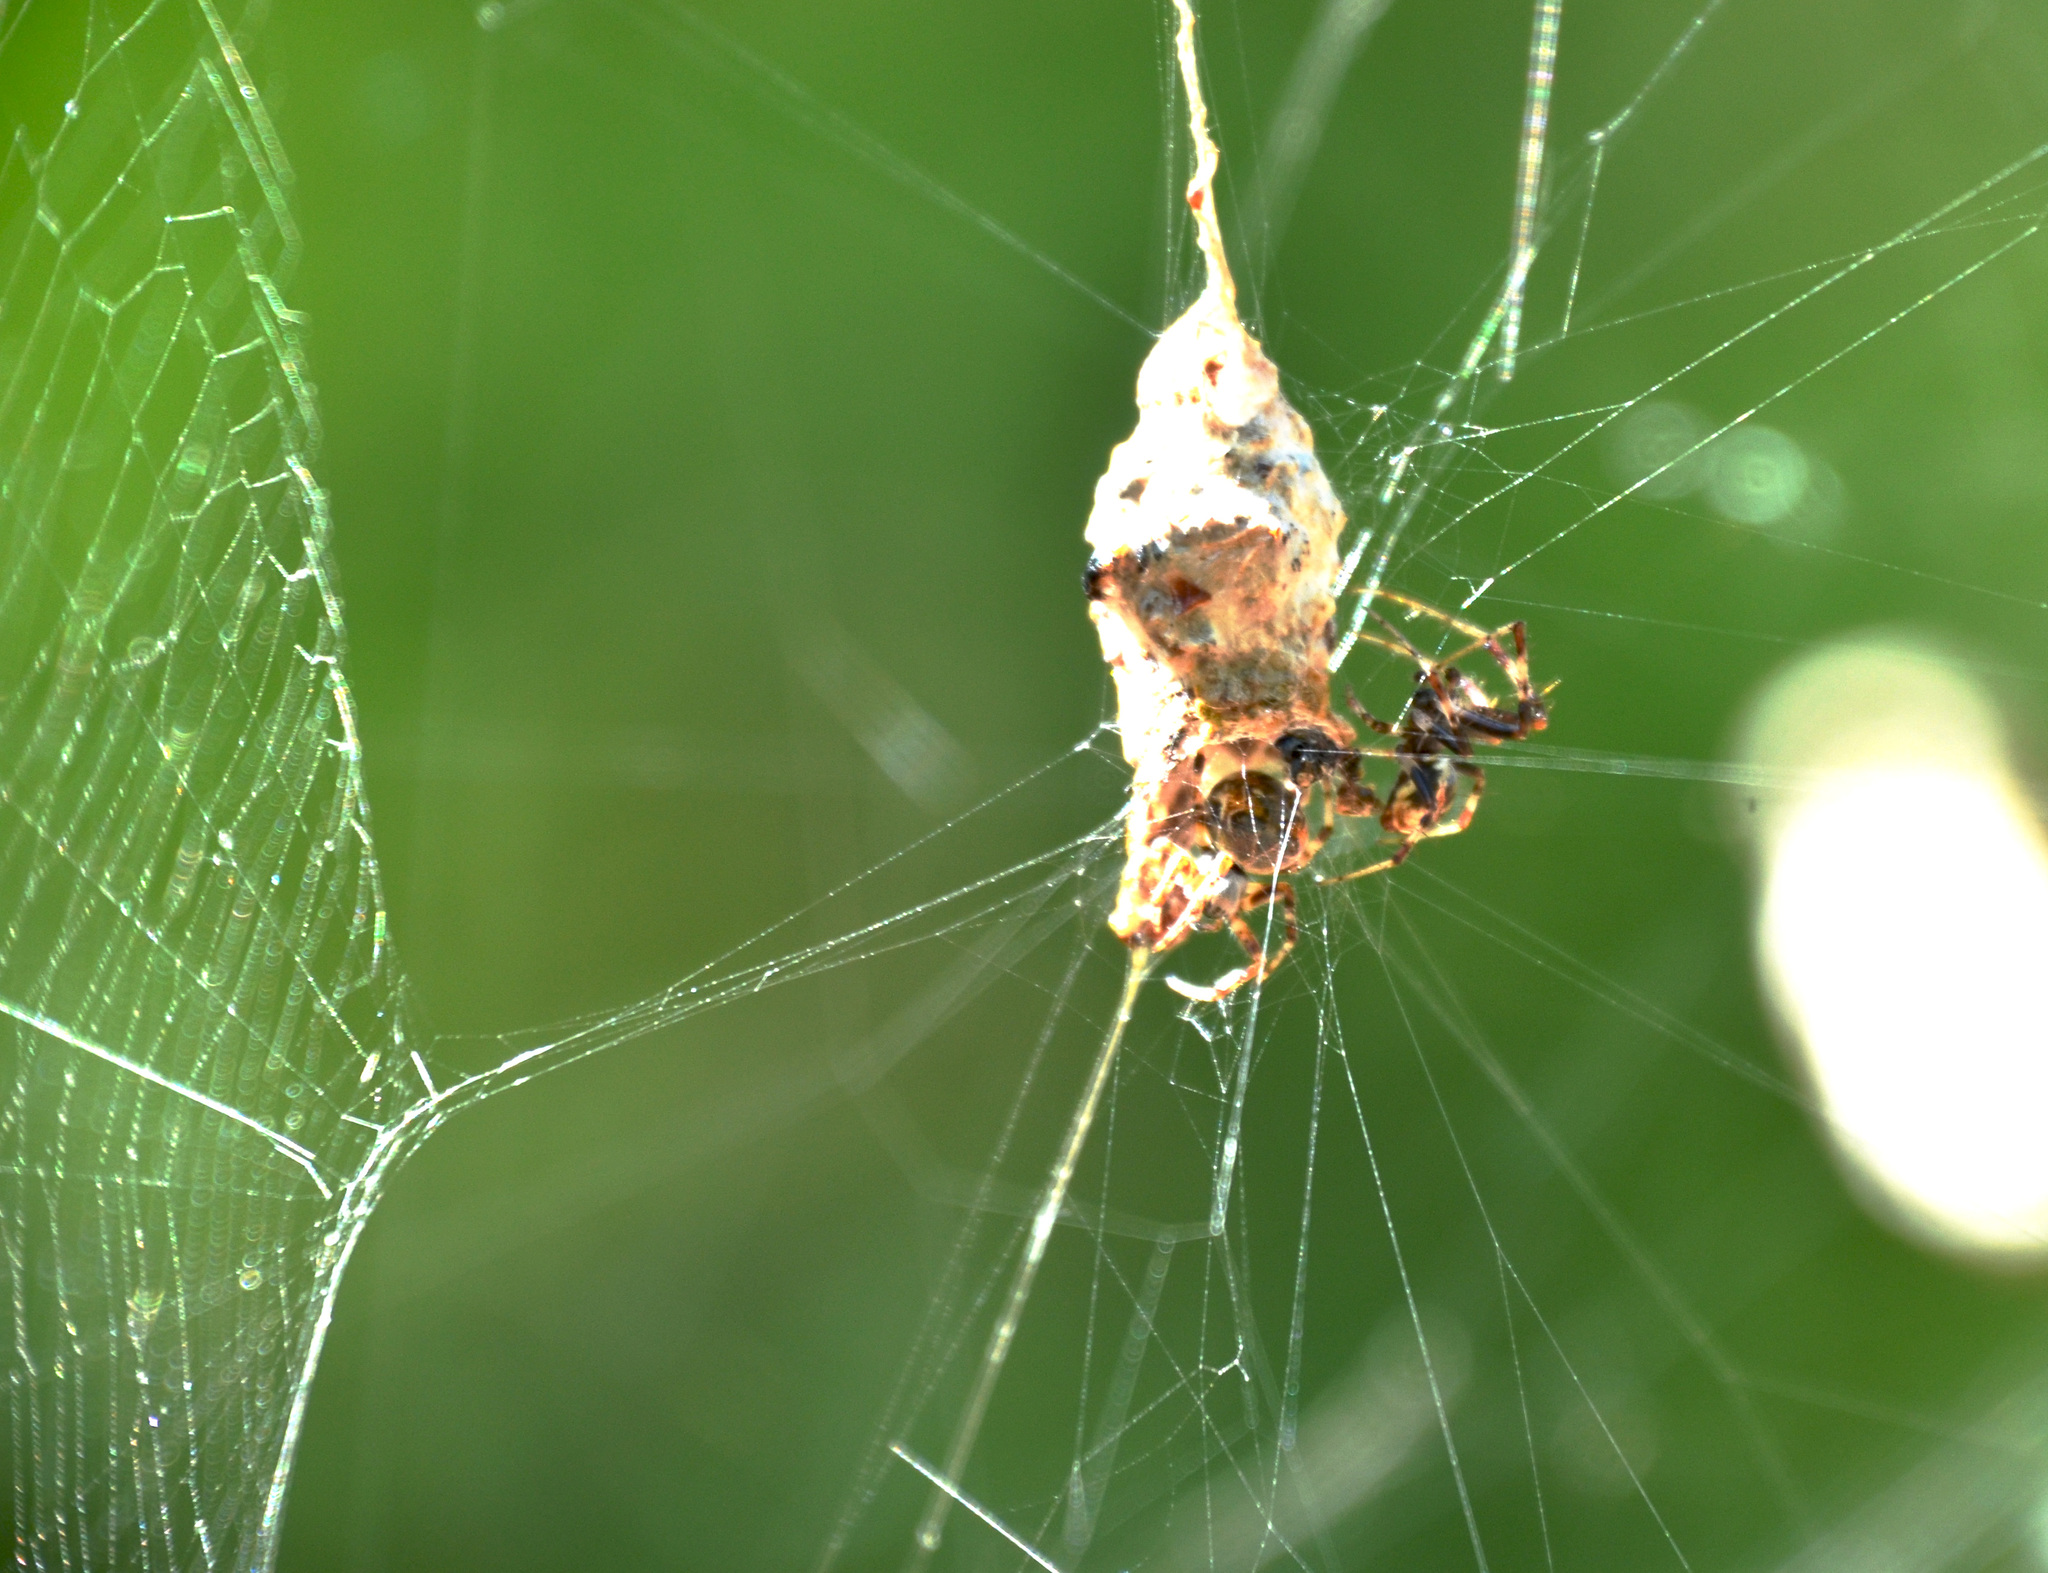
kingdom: Animalia
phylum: Arthropoda
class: Arachnida
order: Araneae
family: Araneidae
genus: Metepeira
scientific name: Metepeira
